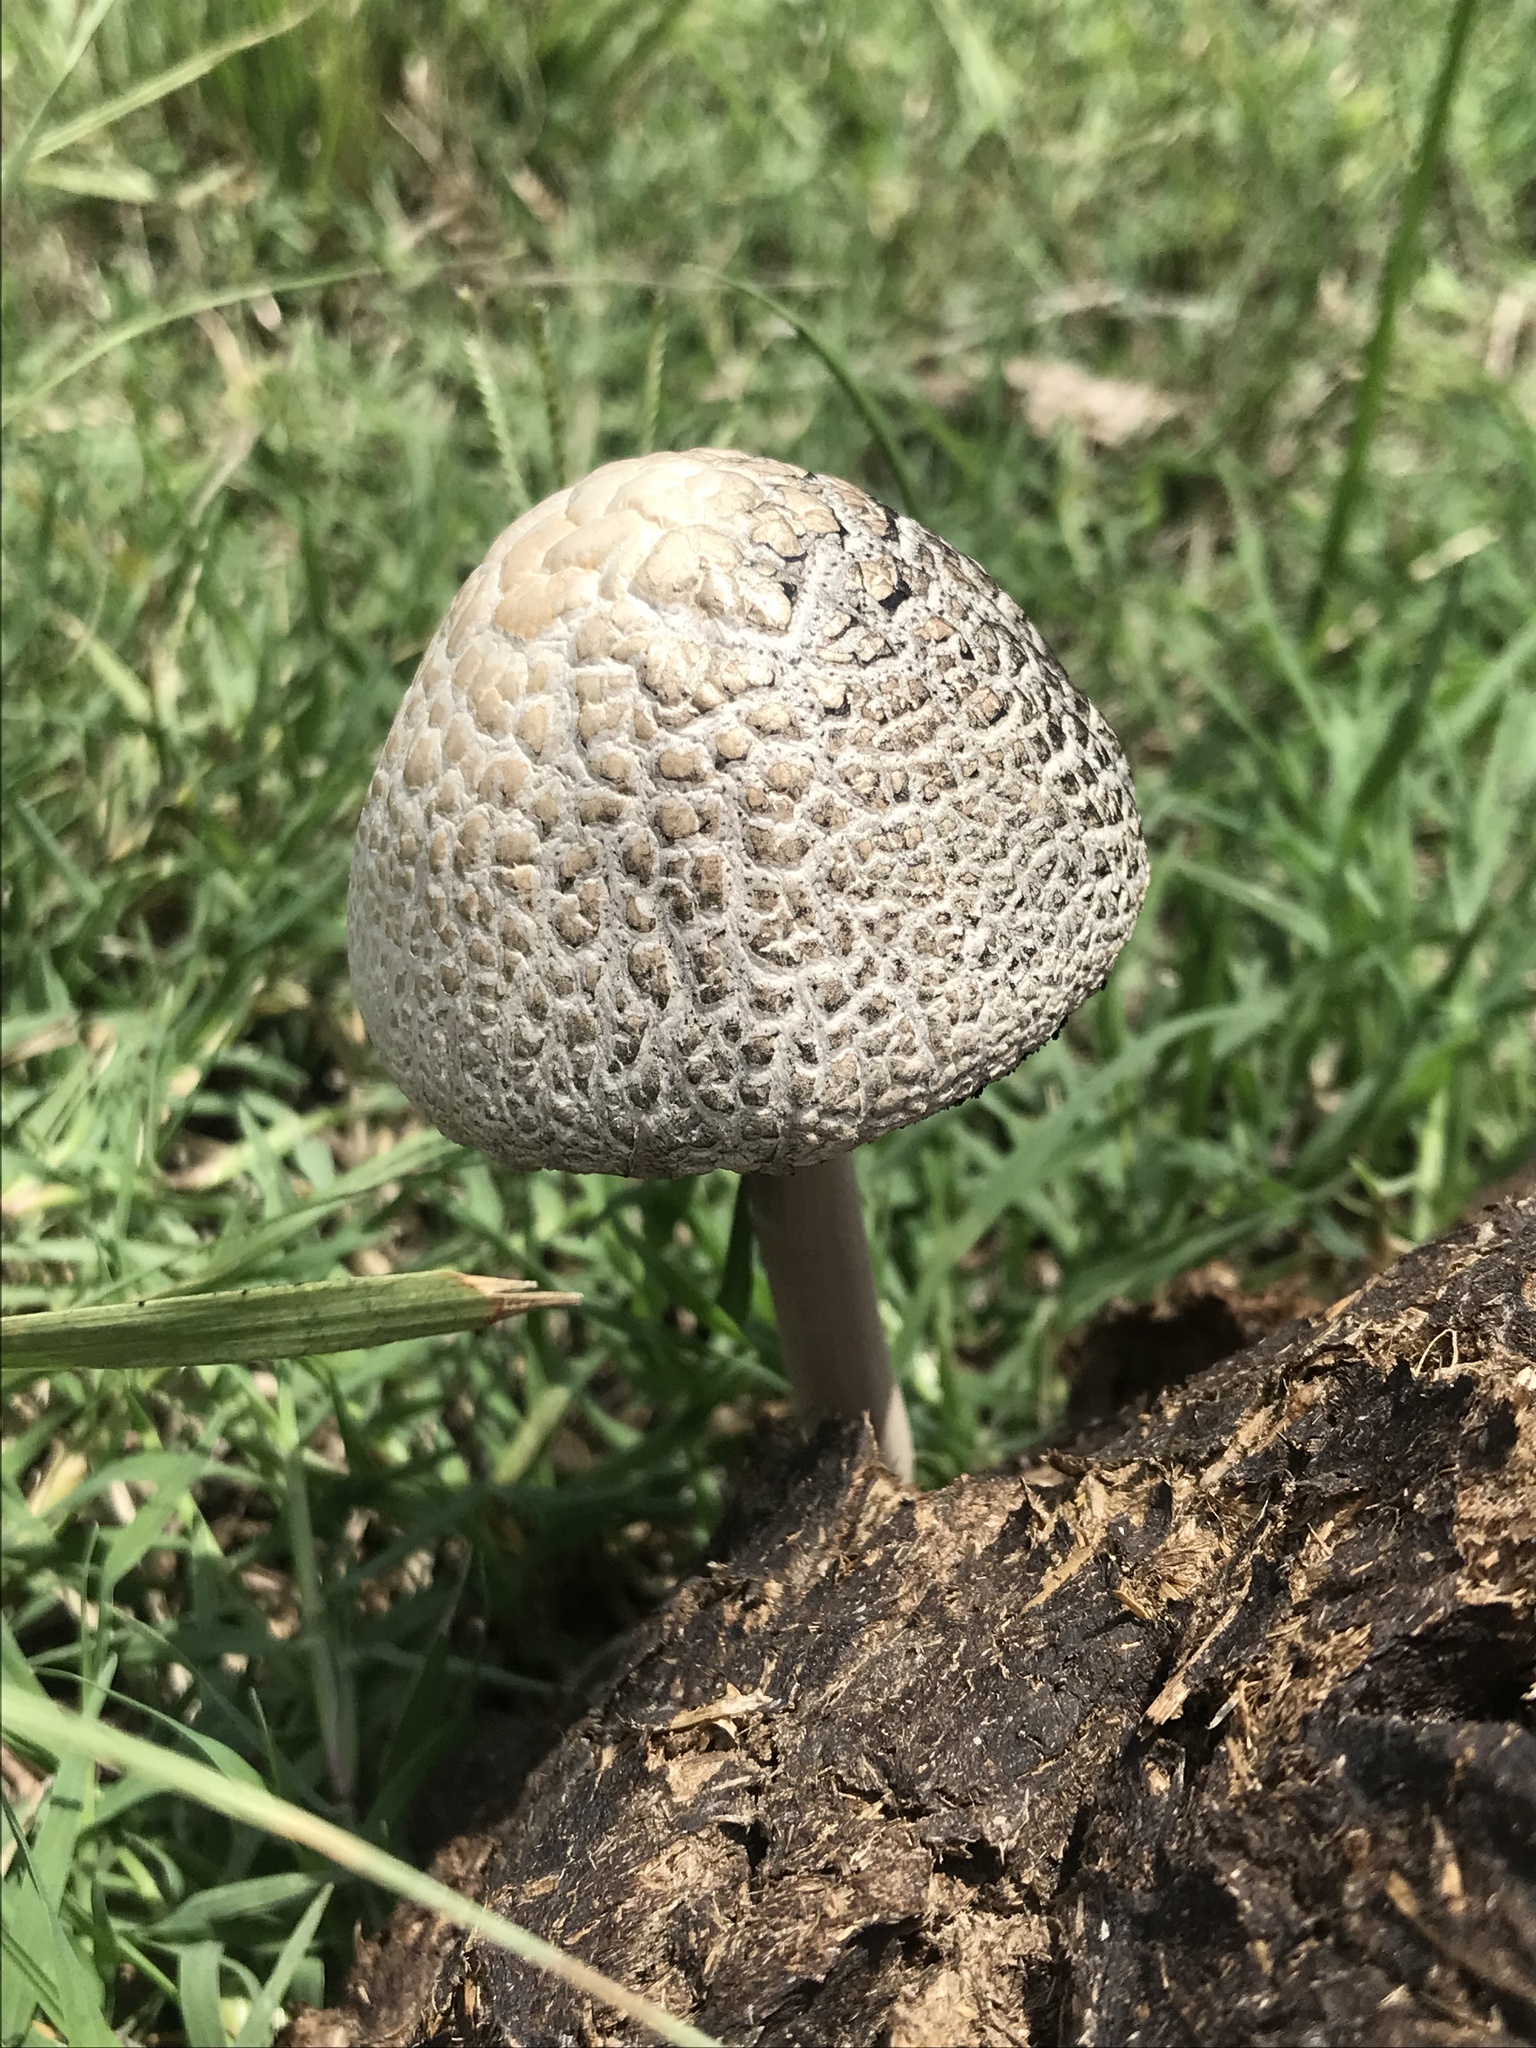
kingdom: Fungi
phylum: Basidiomycota
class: Agaricomycetes
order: Agaricales
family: Bolbitiaceae
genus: Panaeolus
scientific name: Panaeolus antillarum
